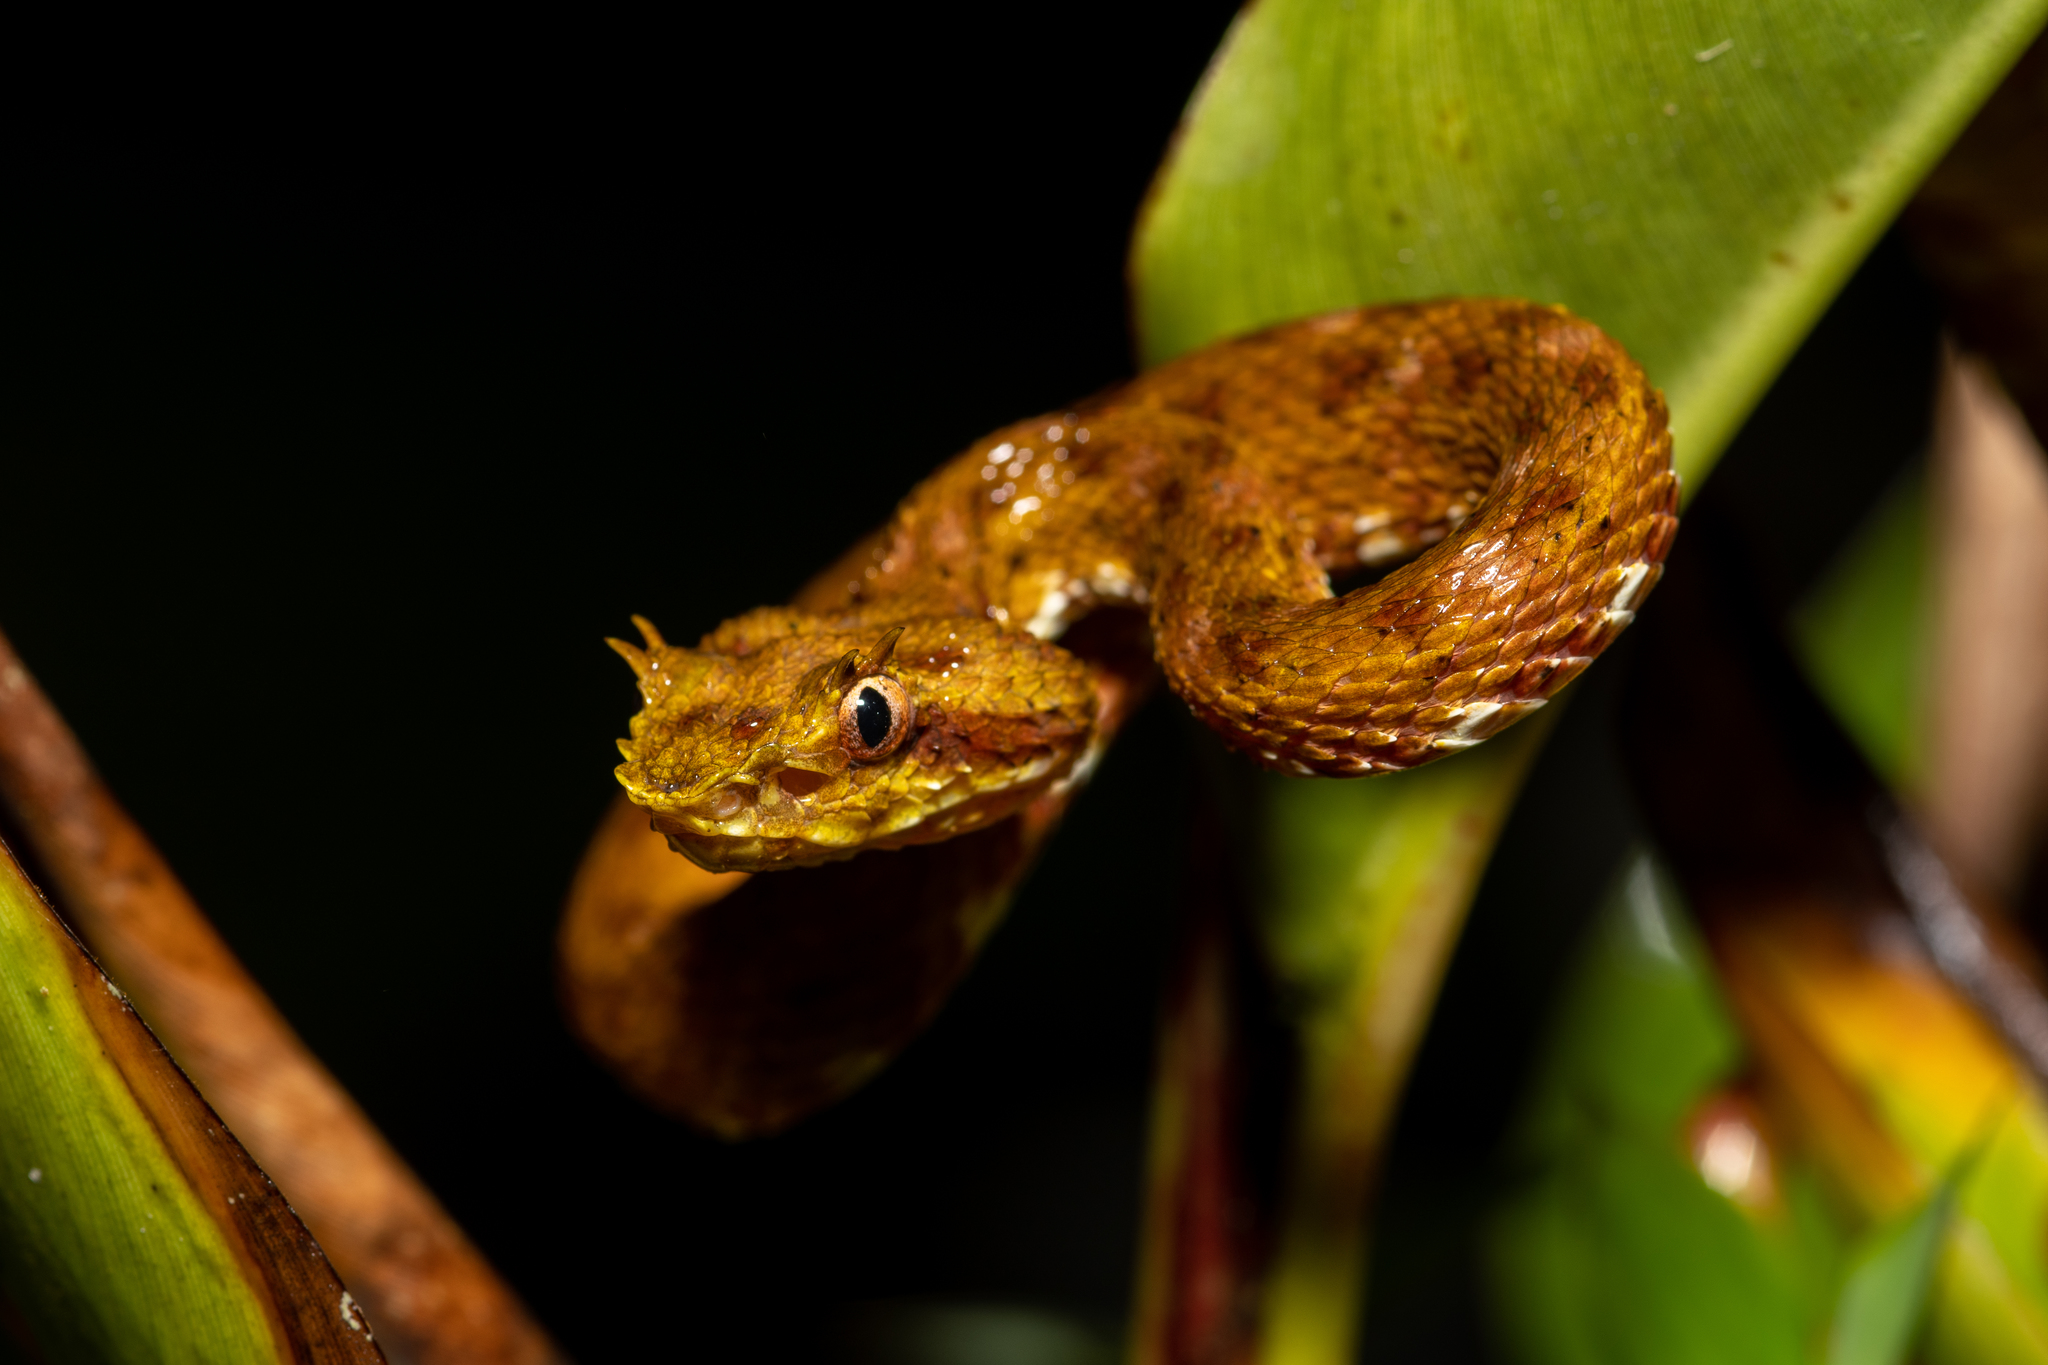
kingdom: Animalia
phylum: Chordata
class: Squamata
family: Viperidae
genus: Bothriechis
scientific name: Bothriechis schlegelii
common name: Eyelash viper
